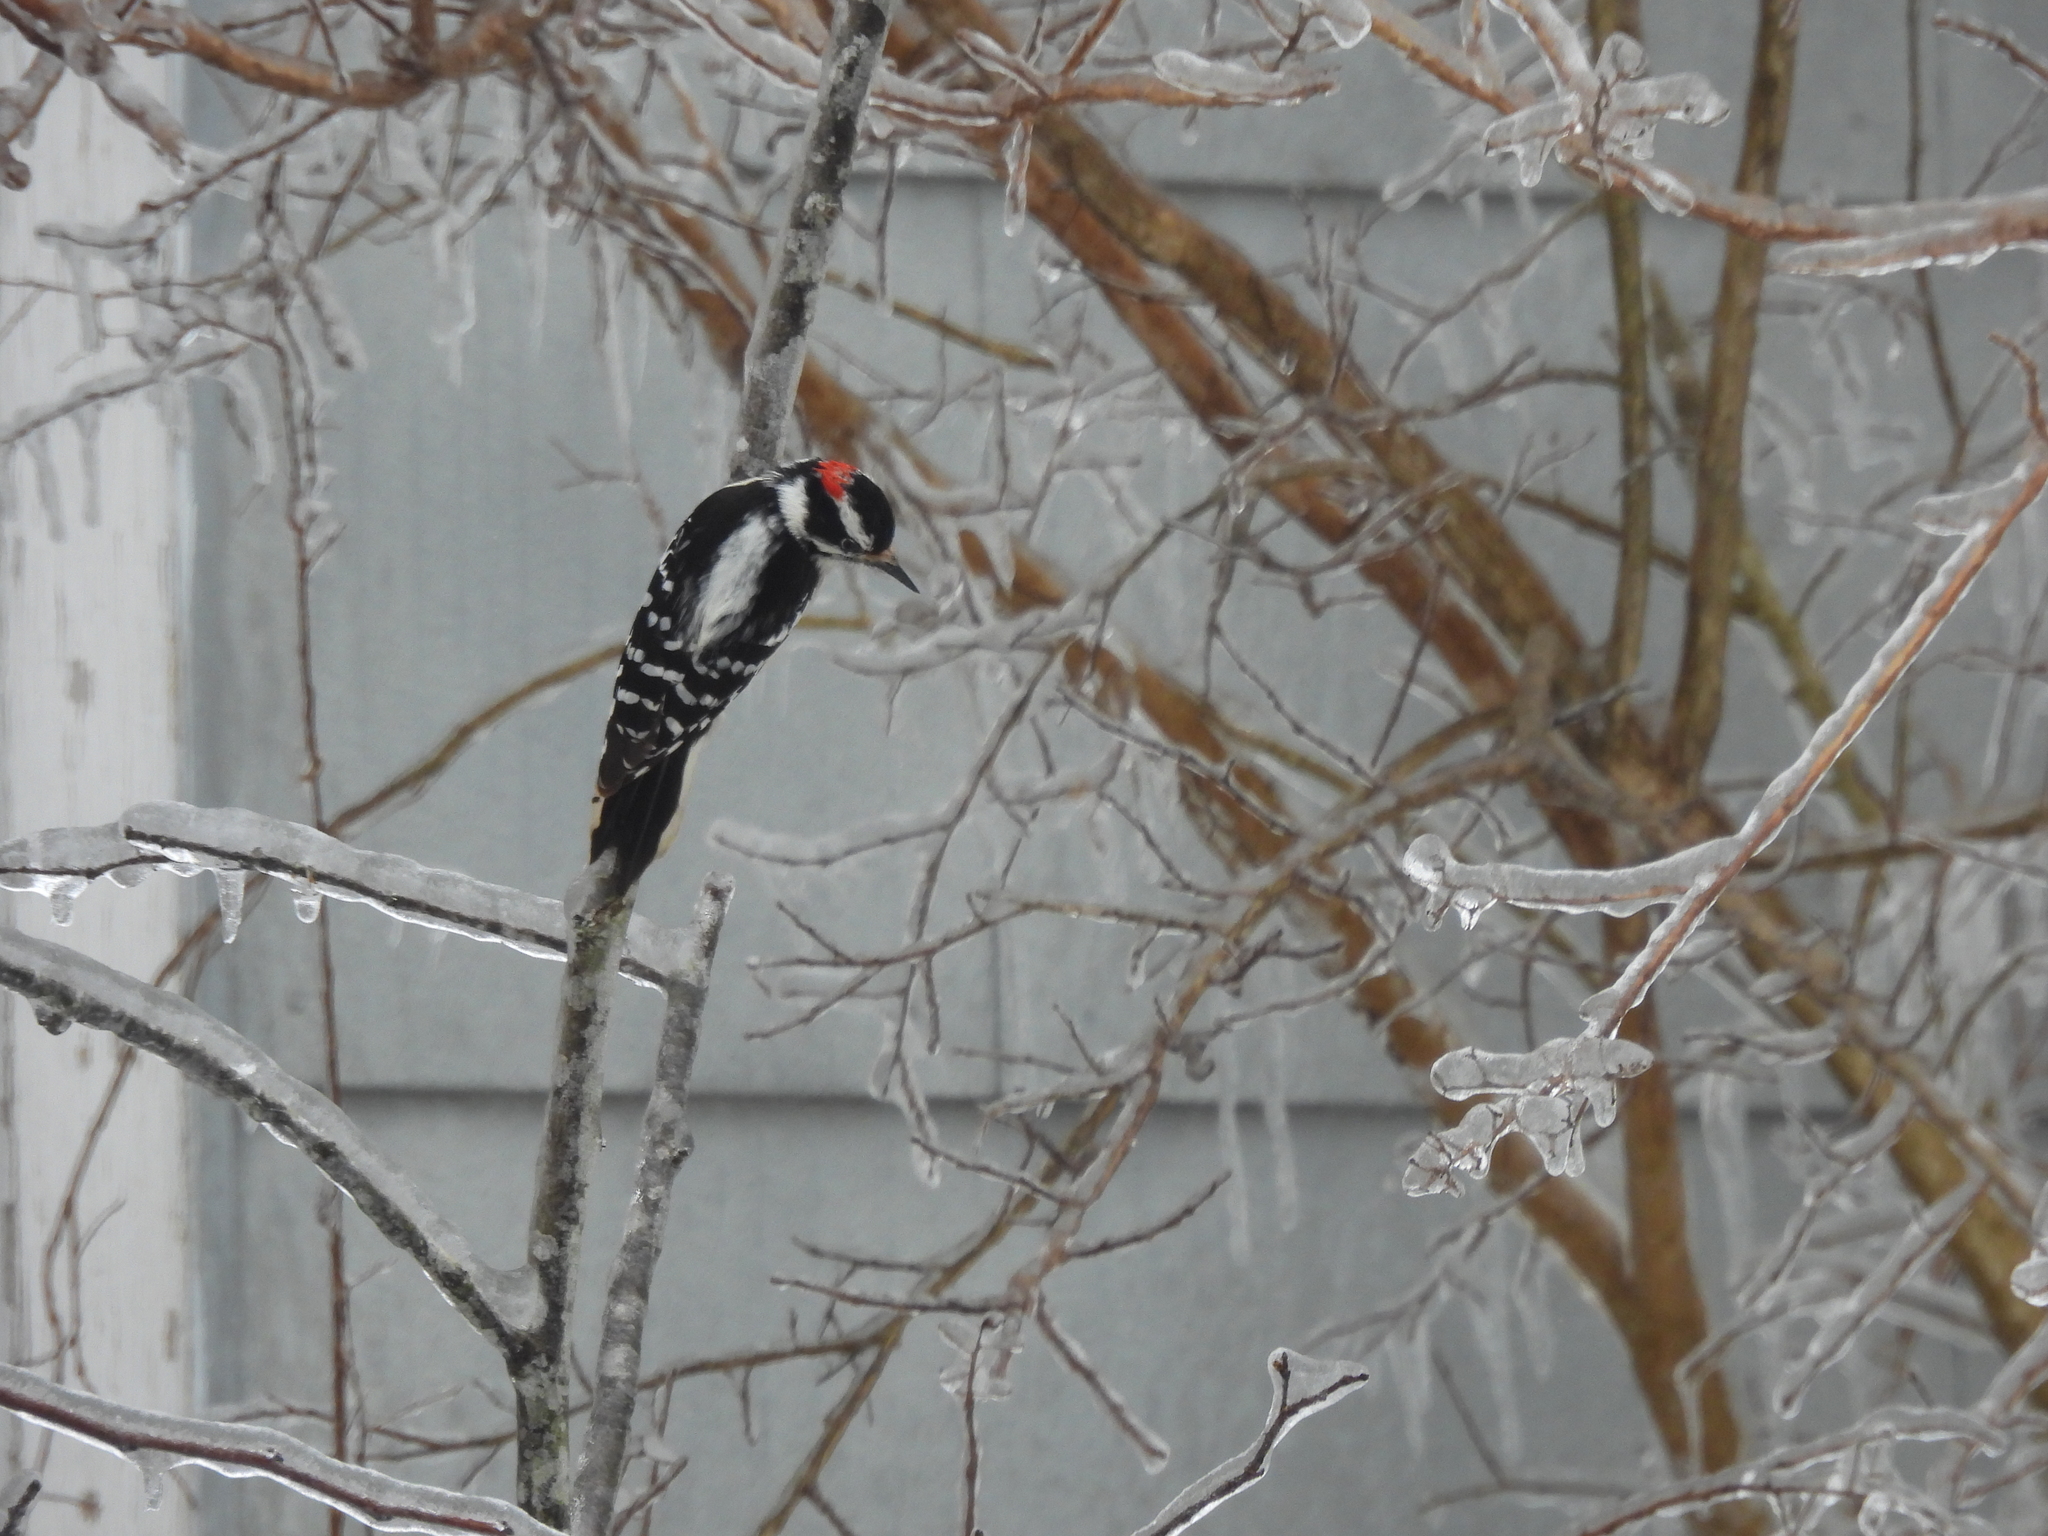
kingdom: Animalia
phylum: Chordata
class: Aves
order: Piciformes
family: Picidae
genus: Dryobates
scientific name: Dryobates pubescens
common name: Downy woodpecker
